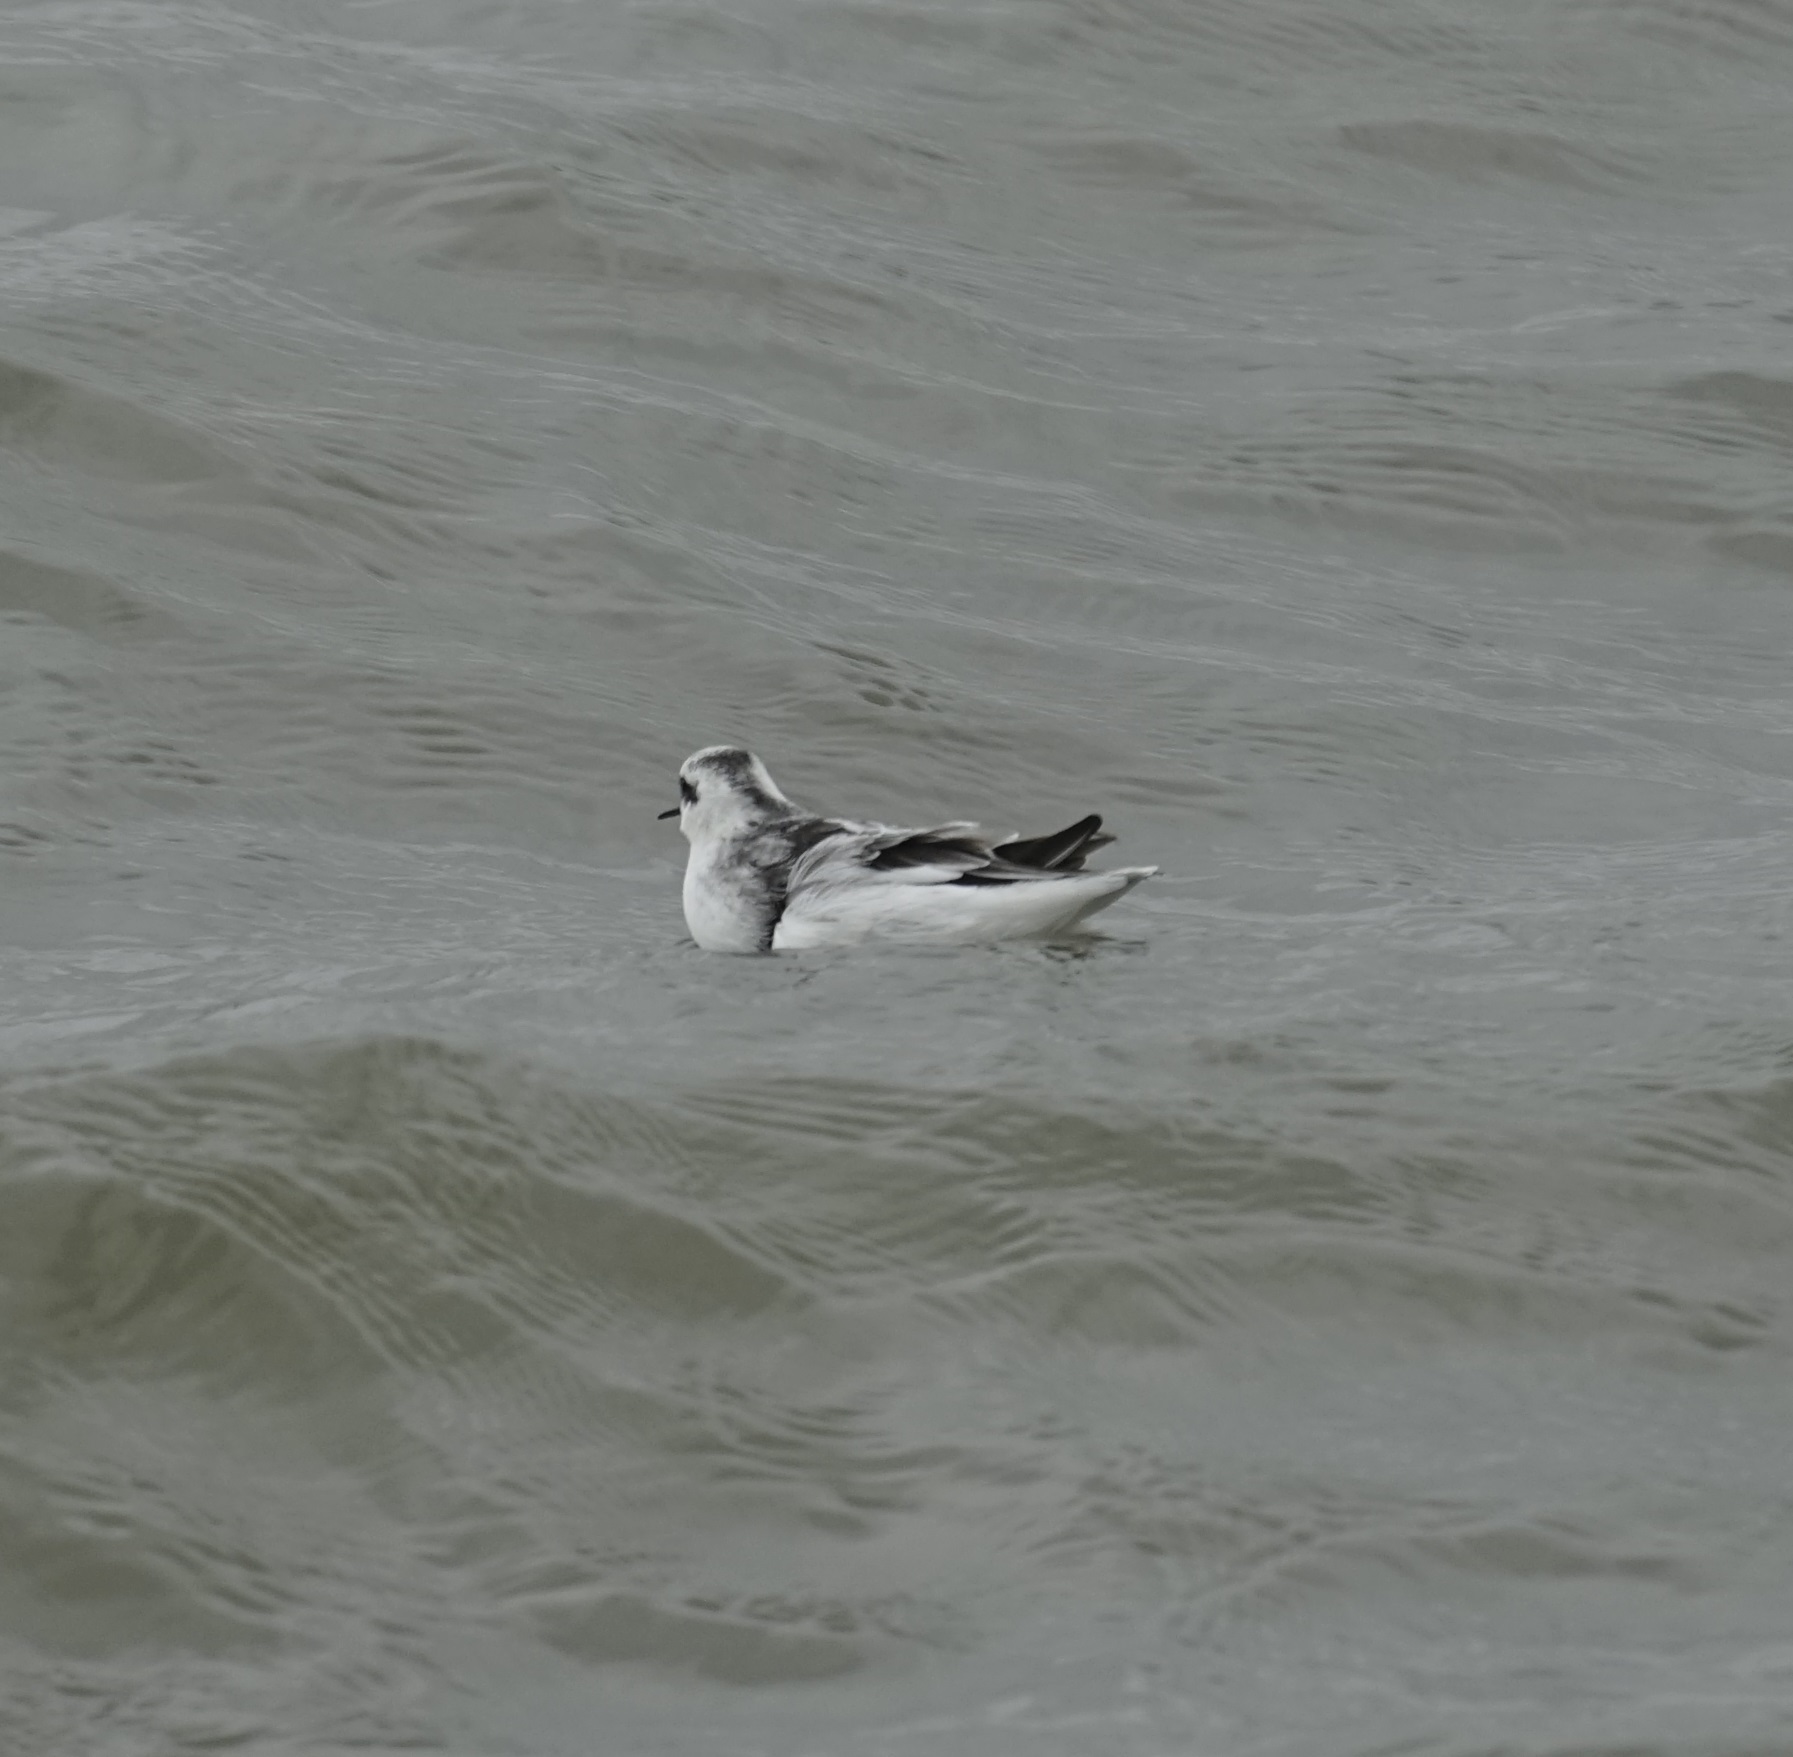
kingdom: Animalia
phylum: Chordata
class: Aves
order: Charadriiformes
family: Scolopacidae
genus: Phalaropus
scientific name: Phalaropus lobatus
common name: Red-necked phalarope
